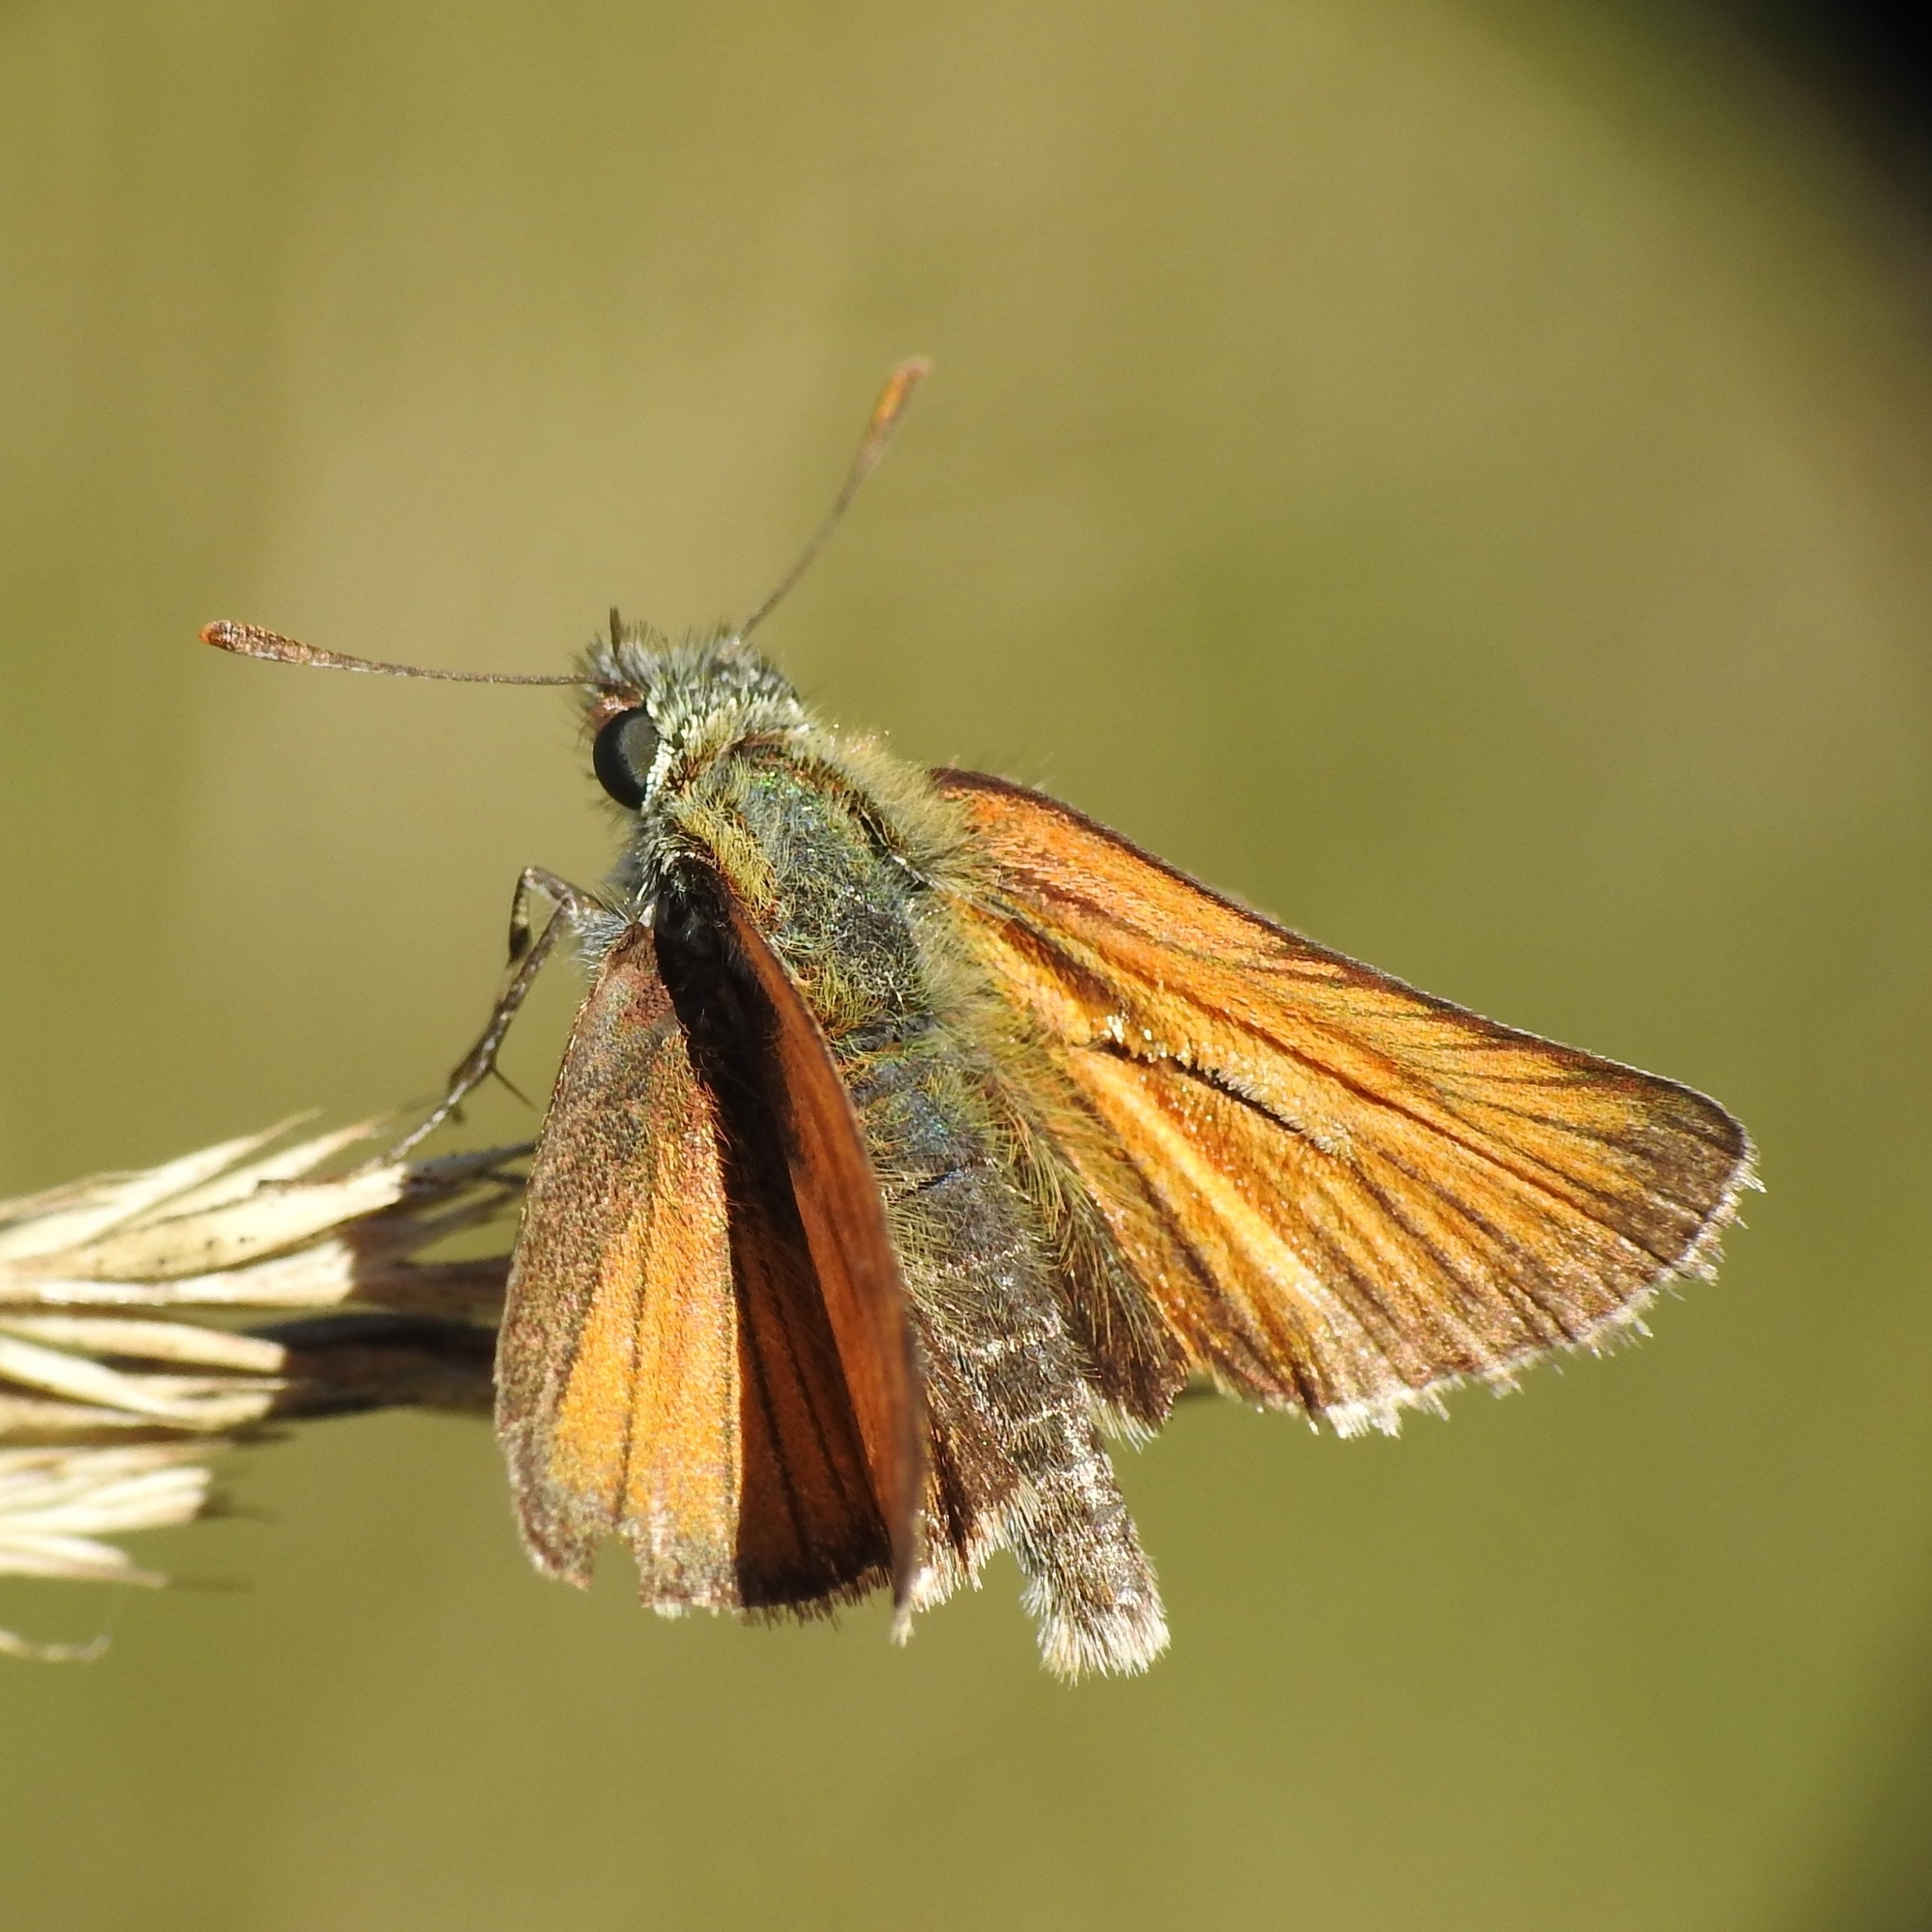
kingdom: Animalia
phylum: Arthropoda
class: Insecta
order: Lepidoptera
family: Hesperiidae
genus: Thymelicus
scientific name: Thymelicus sylvestris
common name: Small skipper
